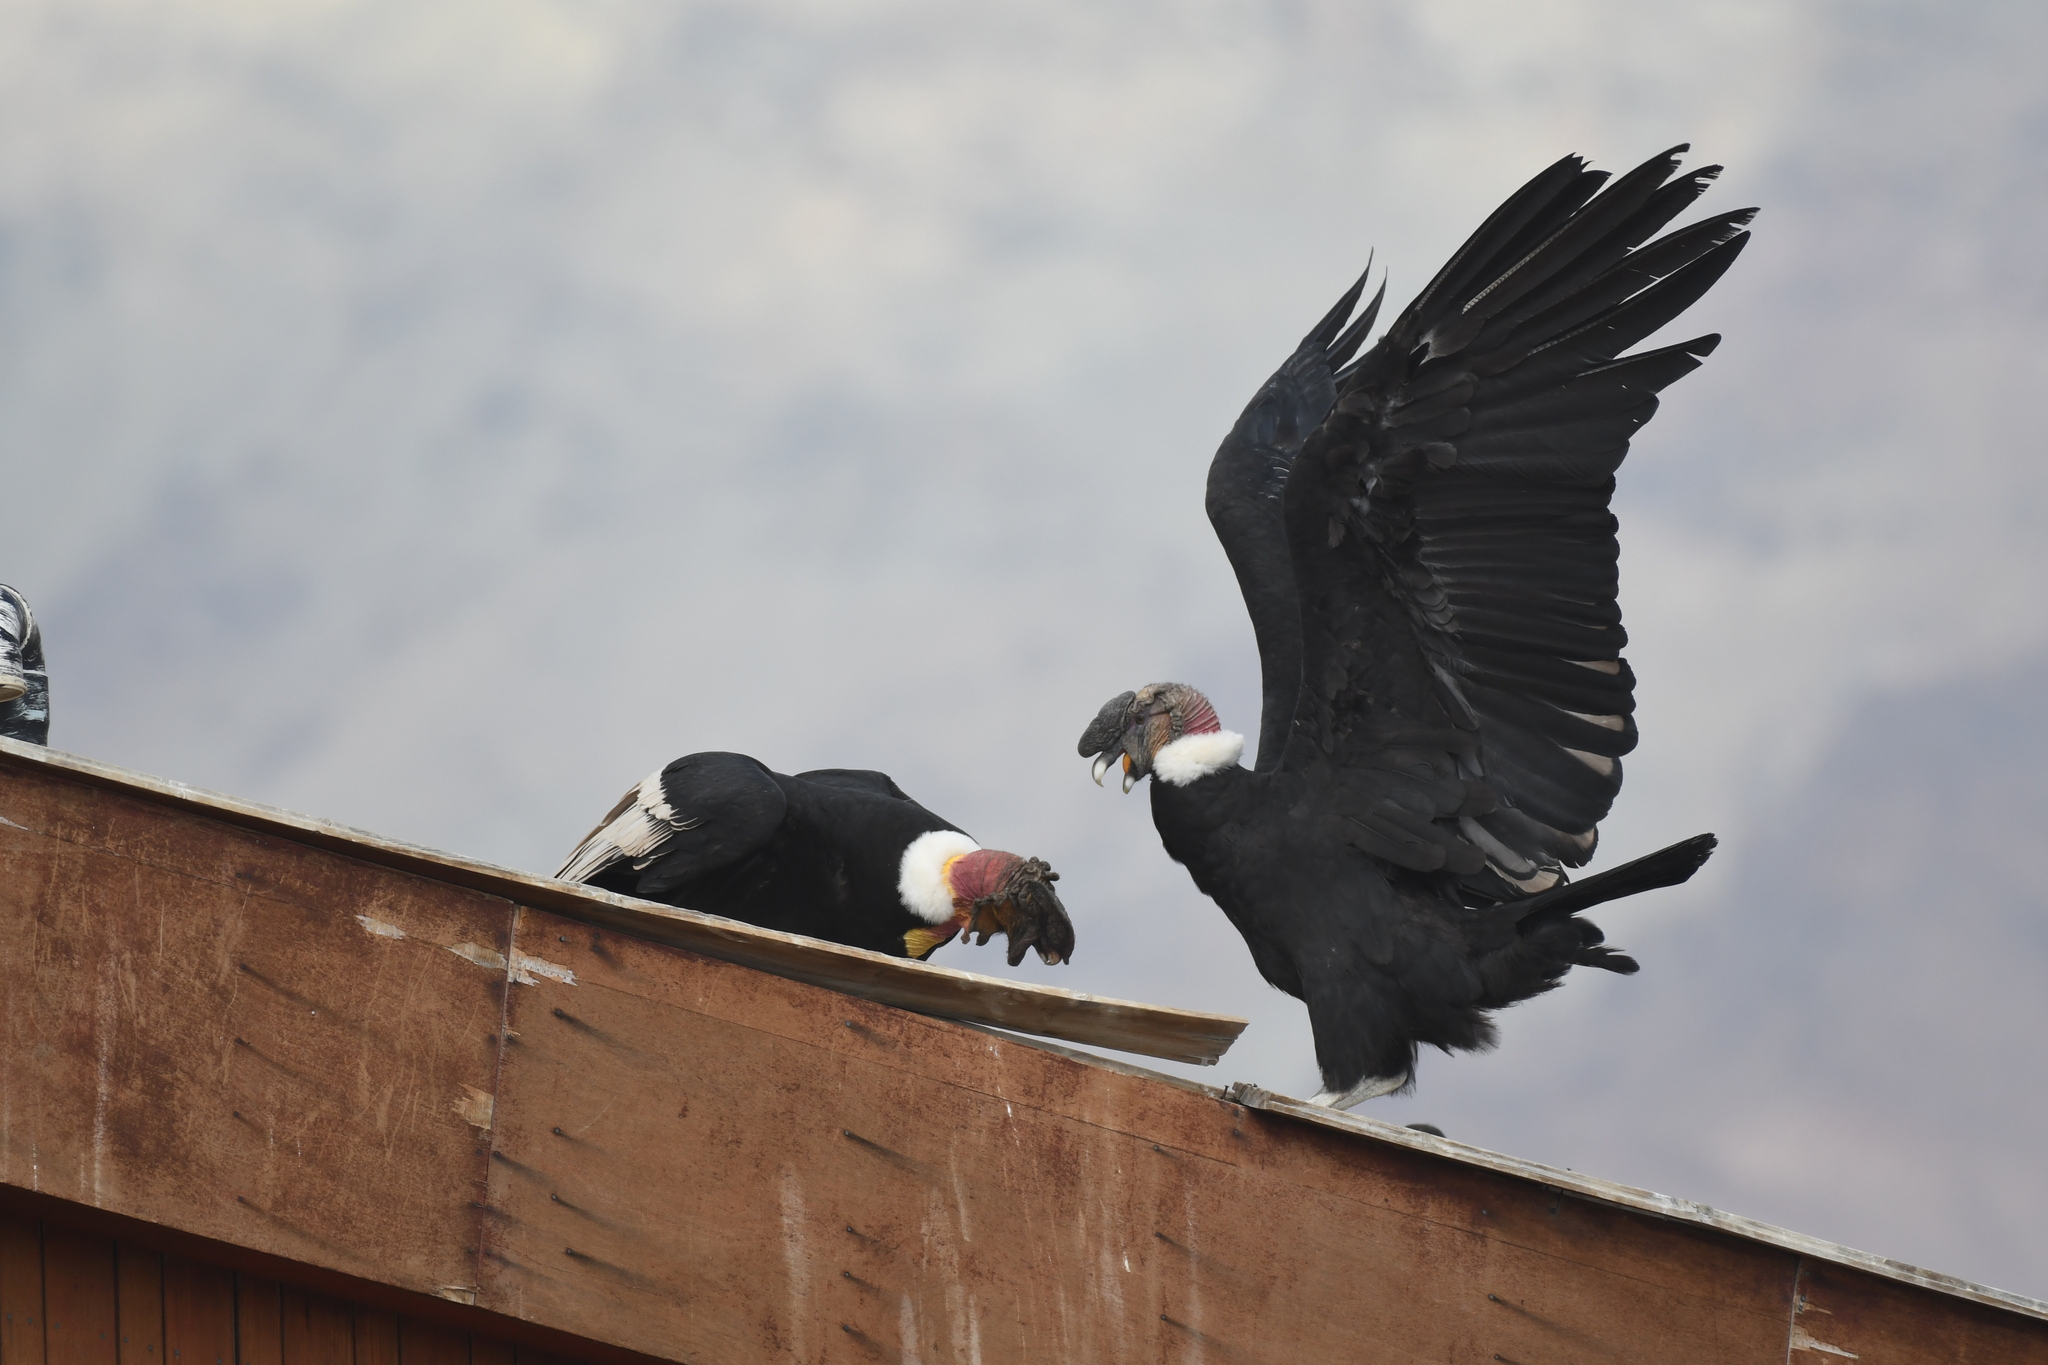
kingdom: Animalia
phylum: Chordata
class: Aves
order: Accipitriformes
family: Cathartidae
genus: Vultur
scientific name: Vultur gryphus
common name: Andean condor
